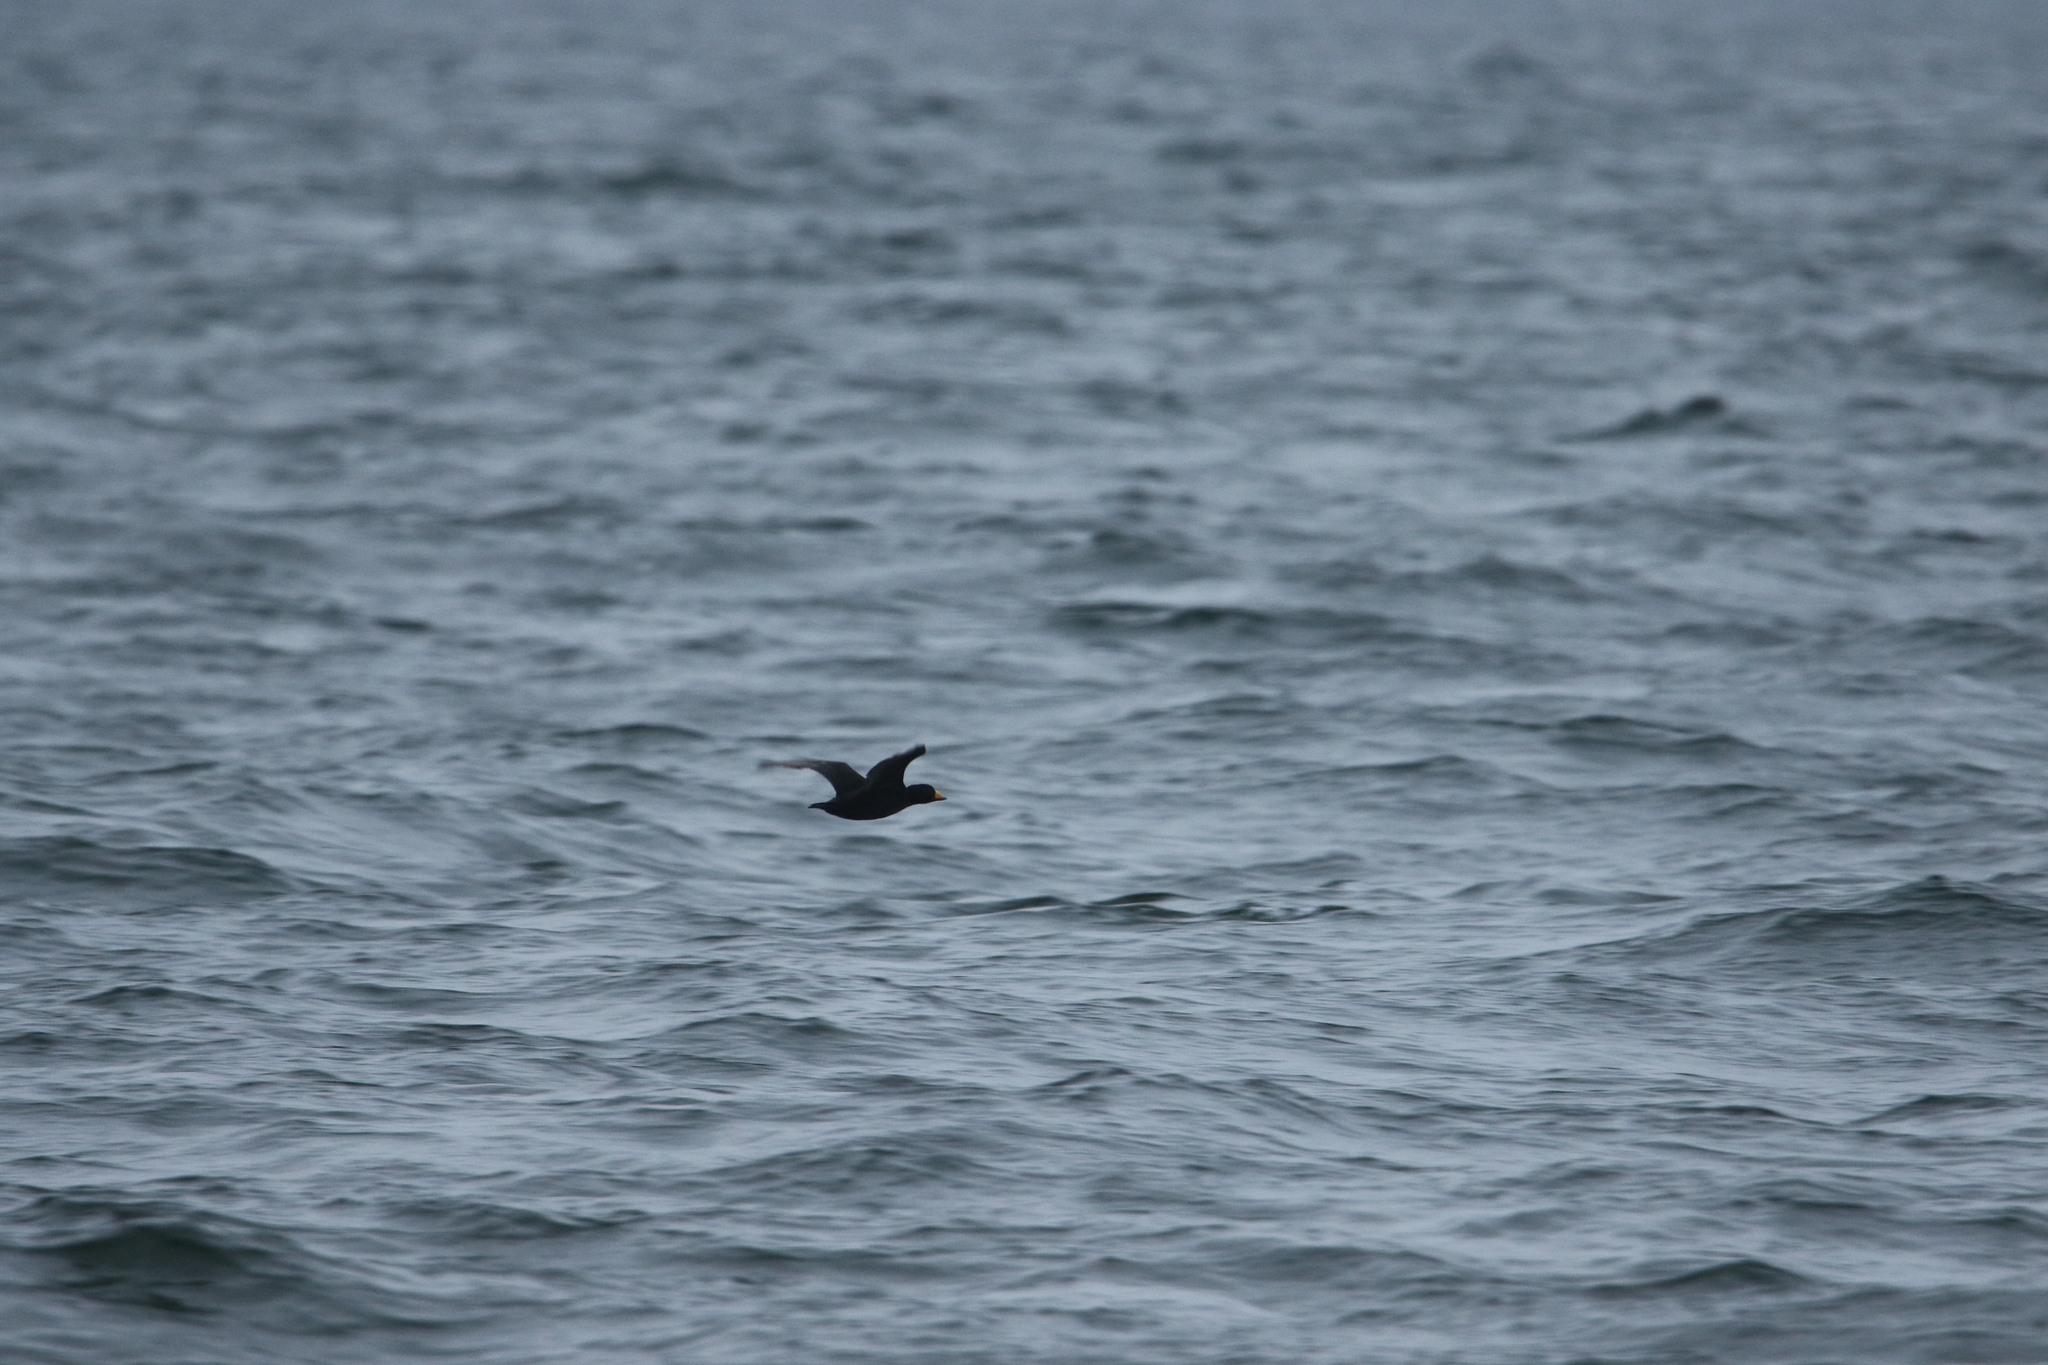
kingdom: Animalia
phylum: Chordata
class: Aves
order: Anseriformes
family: Anatidae
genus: Melanitta
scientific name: Melanitta americana
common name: Black scoter
